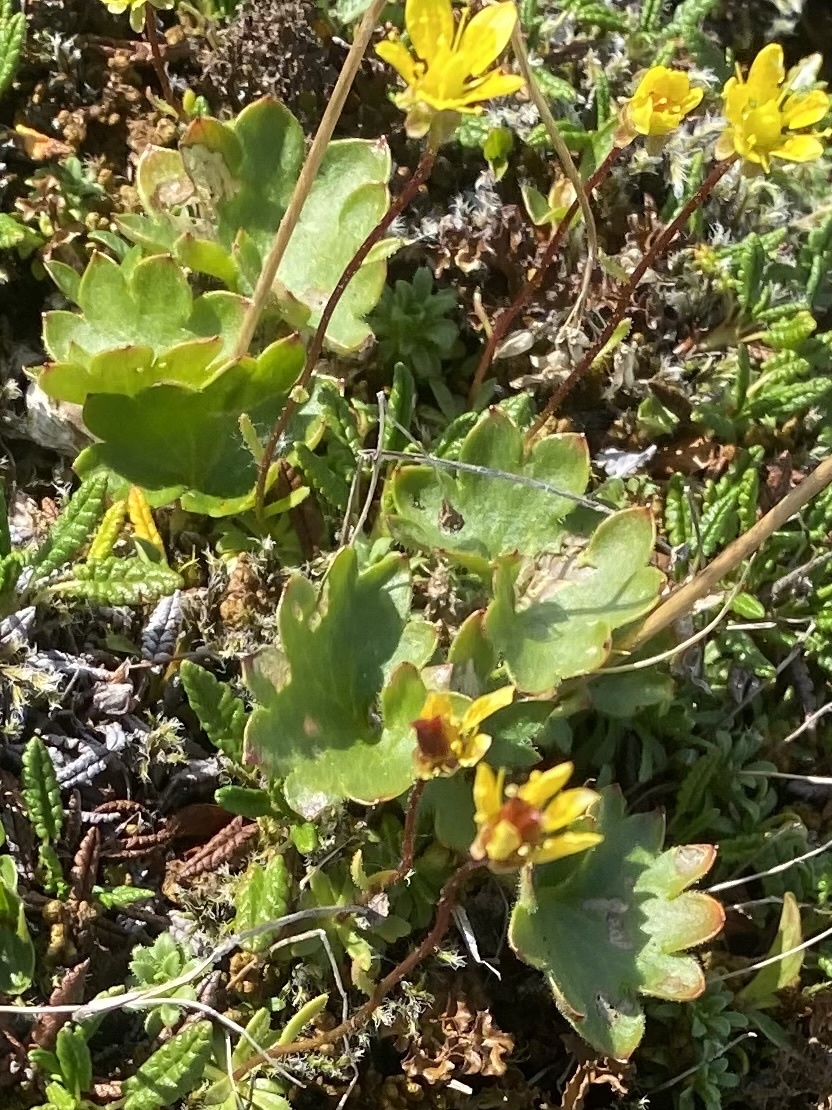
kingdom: Plantae
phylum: Tracheophyta
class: Magnoliopsida
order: Saxifragales
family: Saxifragaceae
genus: Micranthes
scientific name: Micranthes nelsoniana
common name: Nelson's saxifrage
